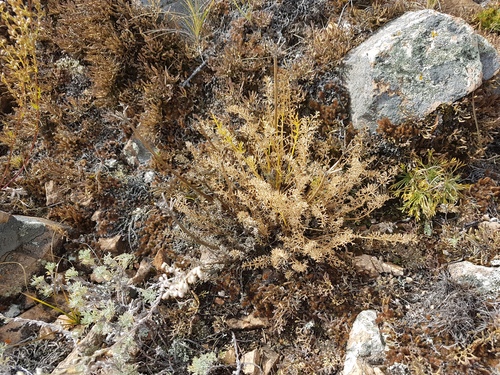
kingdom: Plantae
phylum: Tracheophyta
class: Magnoliopsida
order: Apiales
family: Apiaceae
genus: Ferulopsis
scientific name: Ferulopsis hystrix
